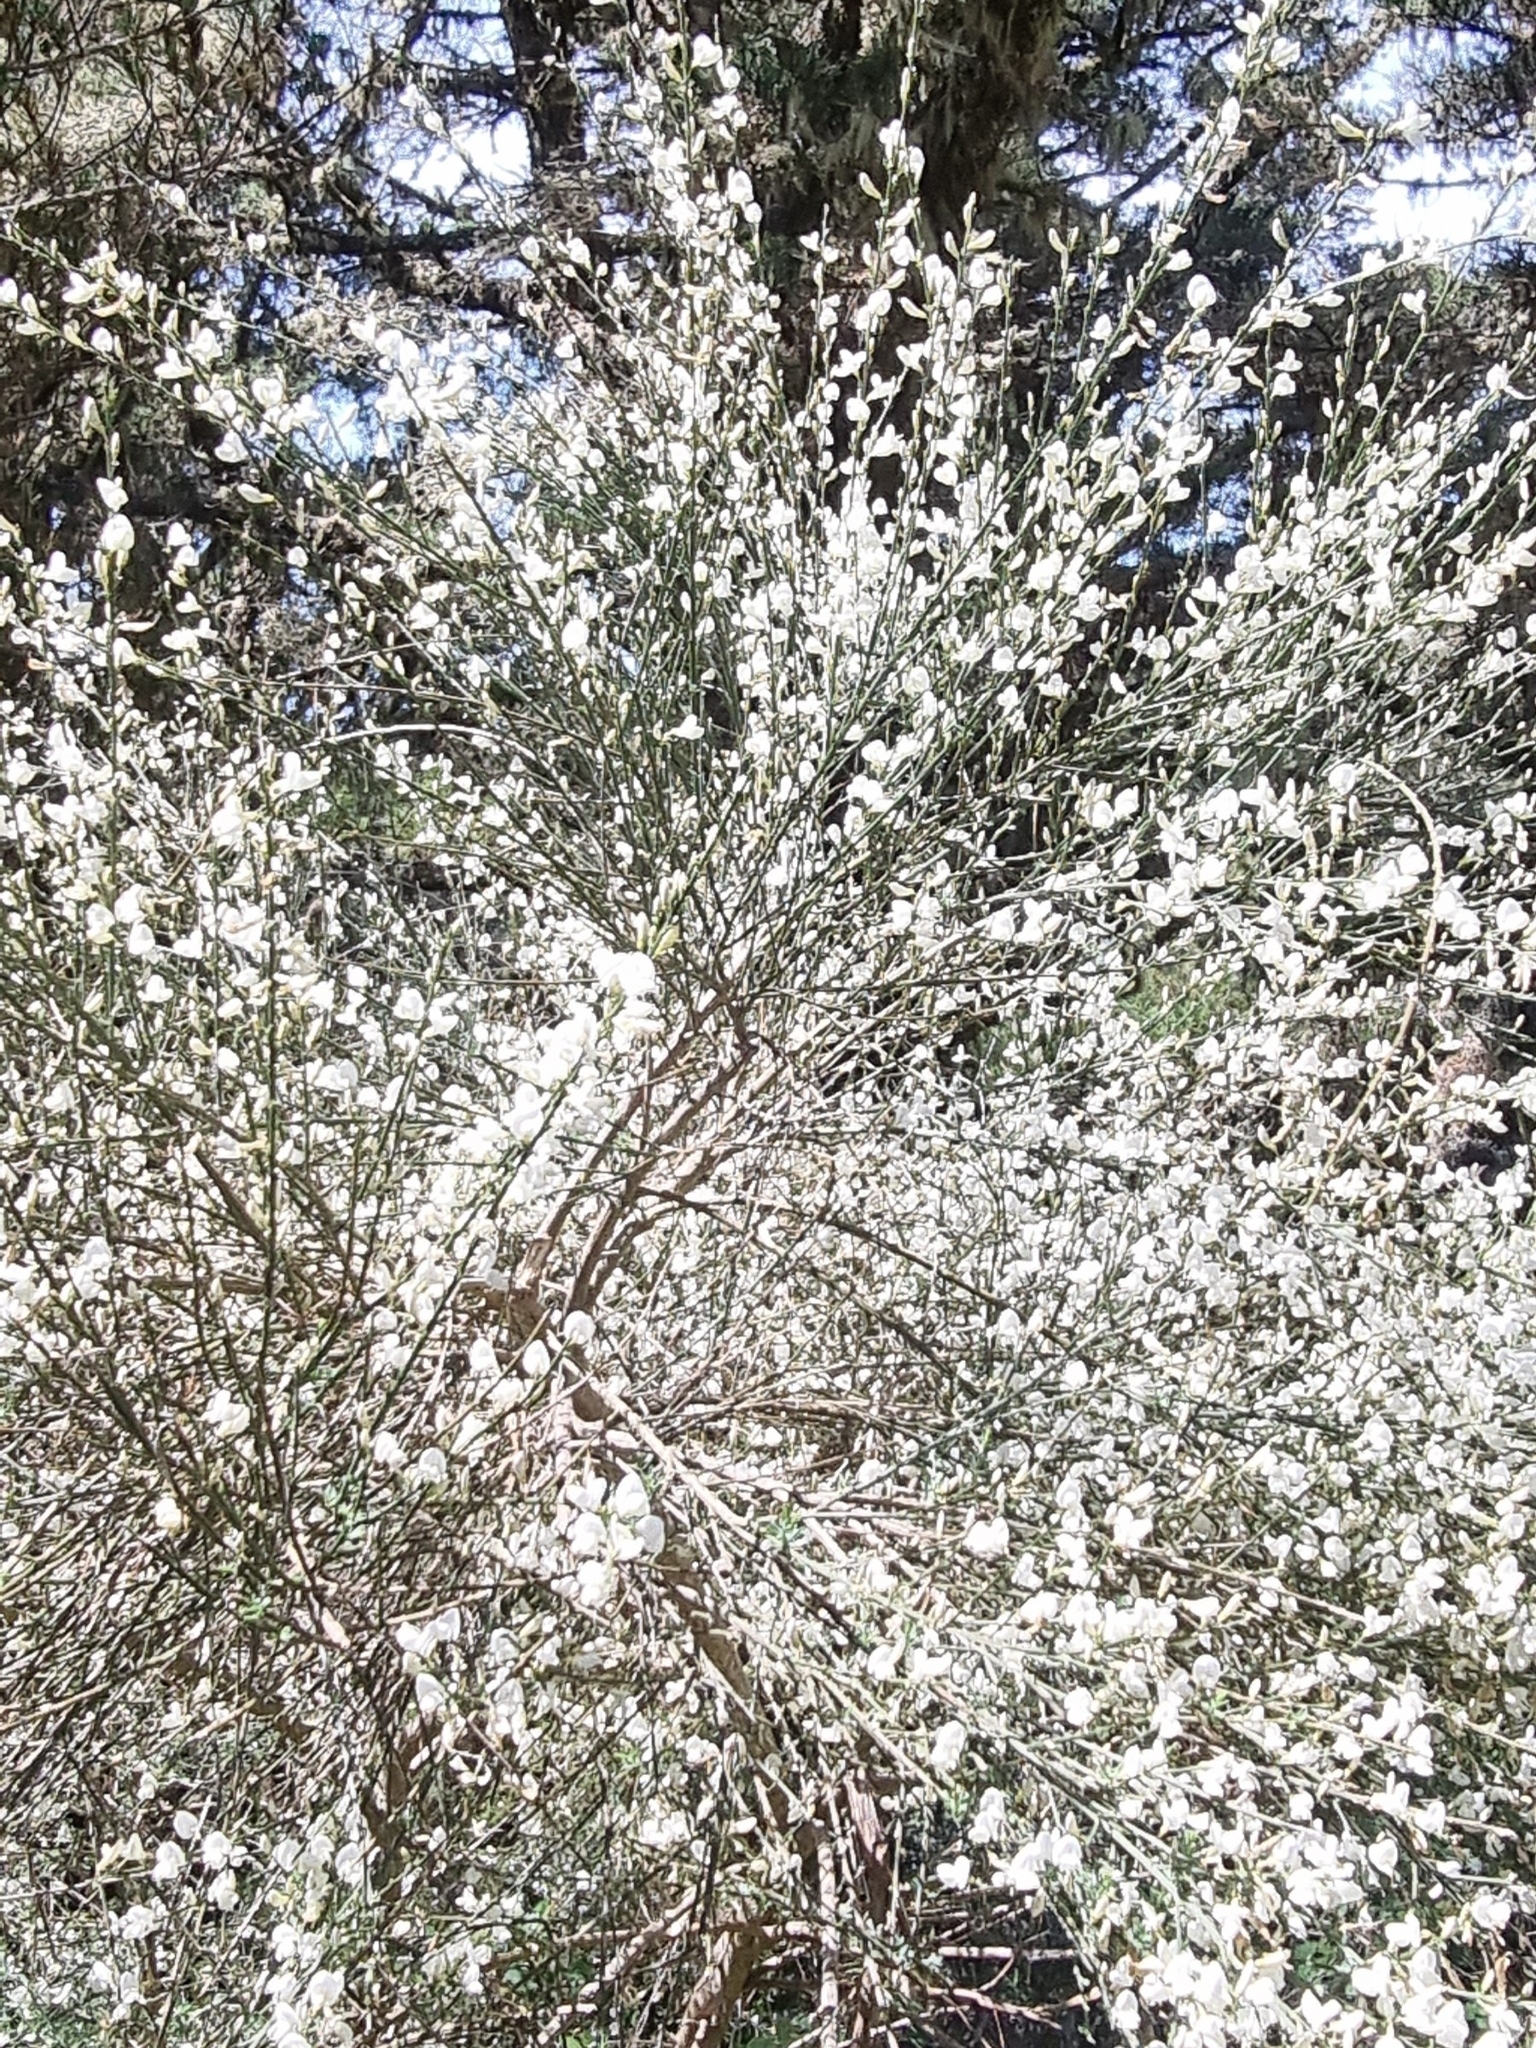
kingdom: Plantae
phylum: Tracheophyta
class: Magnoliopsida
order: Fabales
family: Fabaceae
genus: Cytisus
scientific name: Cytisus multiflorus
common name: White broom
